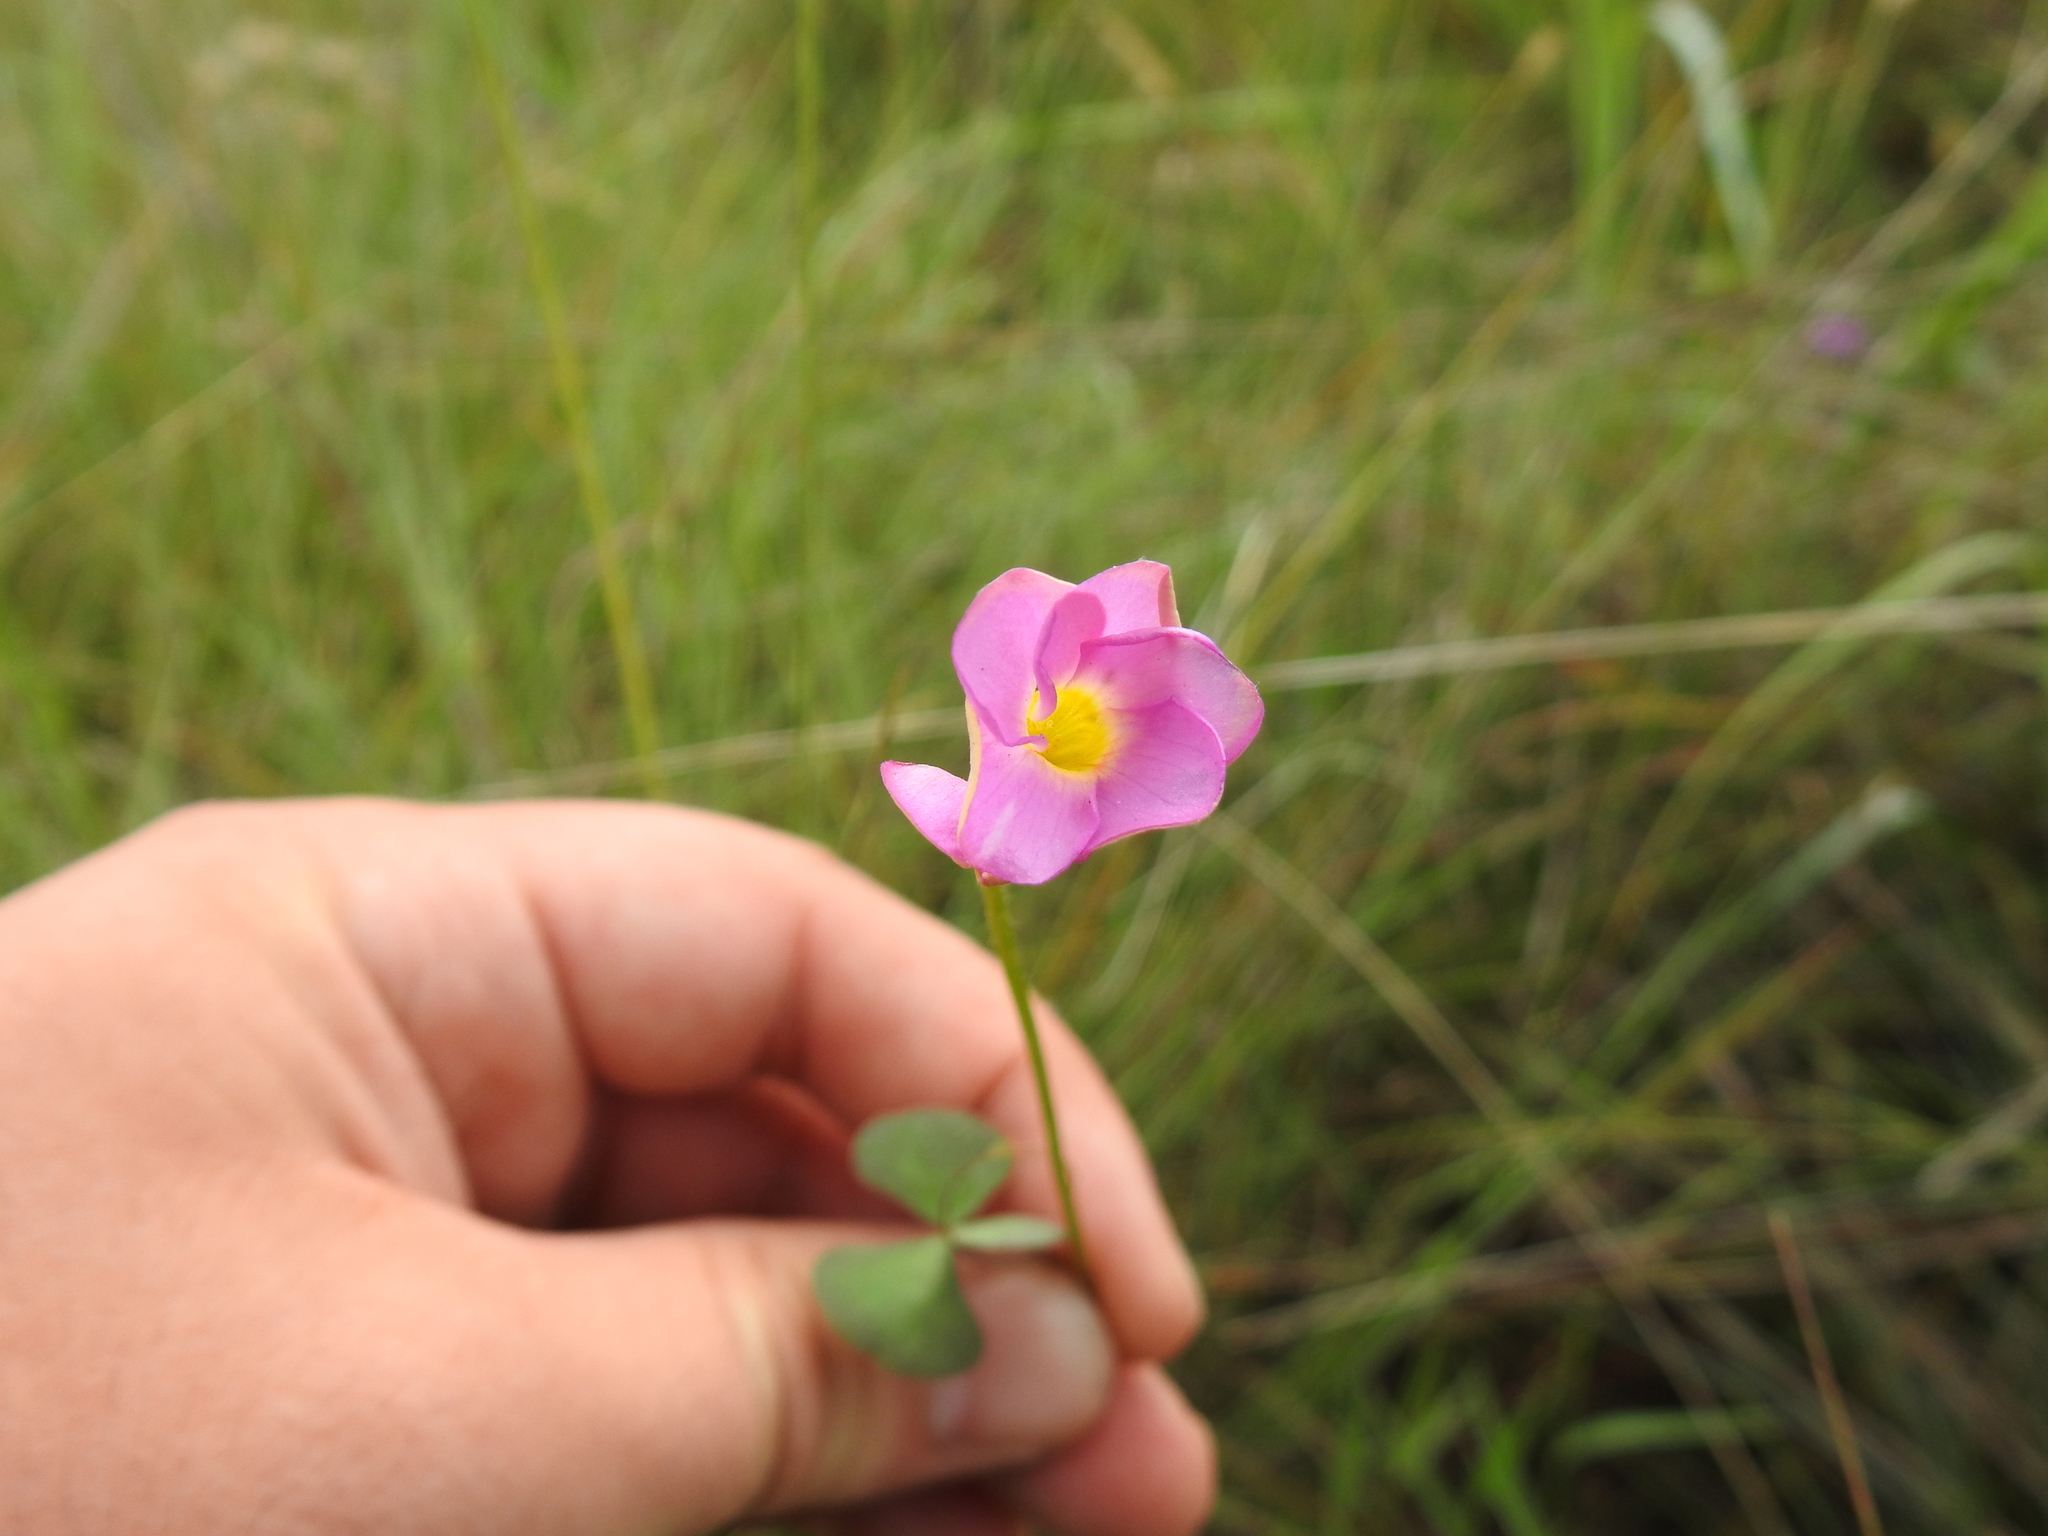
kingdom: Plantae
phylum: Tracheophyta
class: Magnoliopsida
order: Oxalidales
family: Oxalidaceae
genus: Oxalis
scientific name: Oxalis obliquifolia
